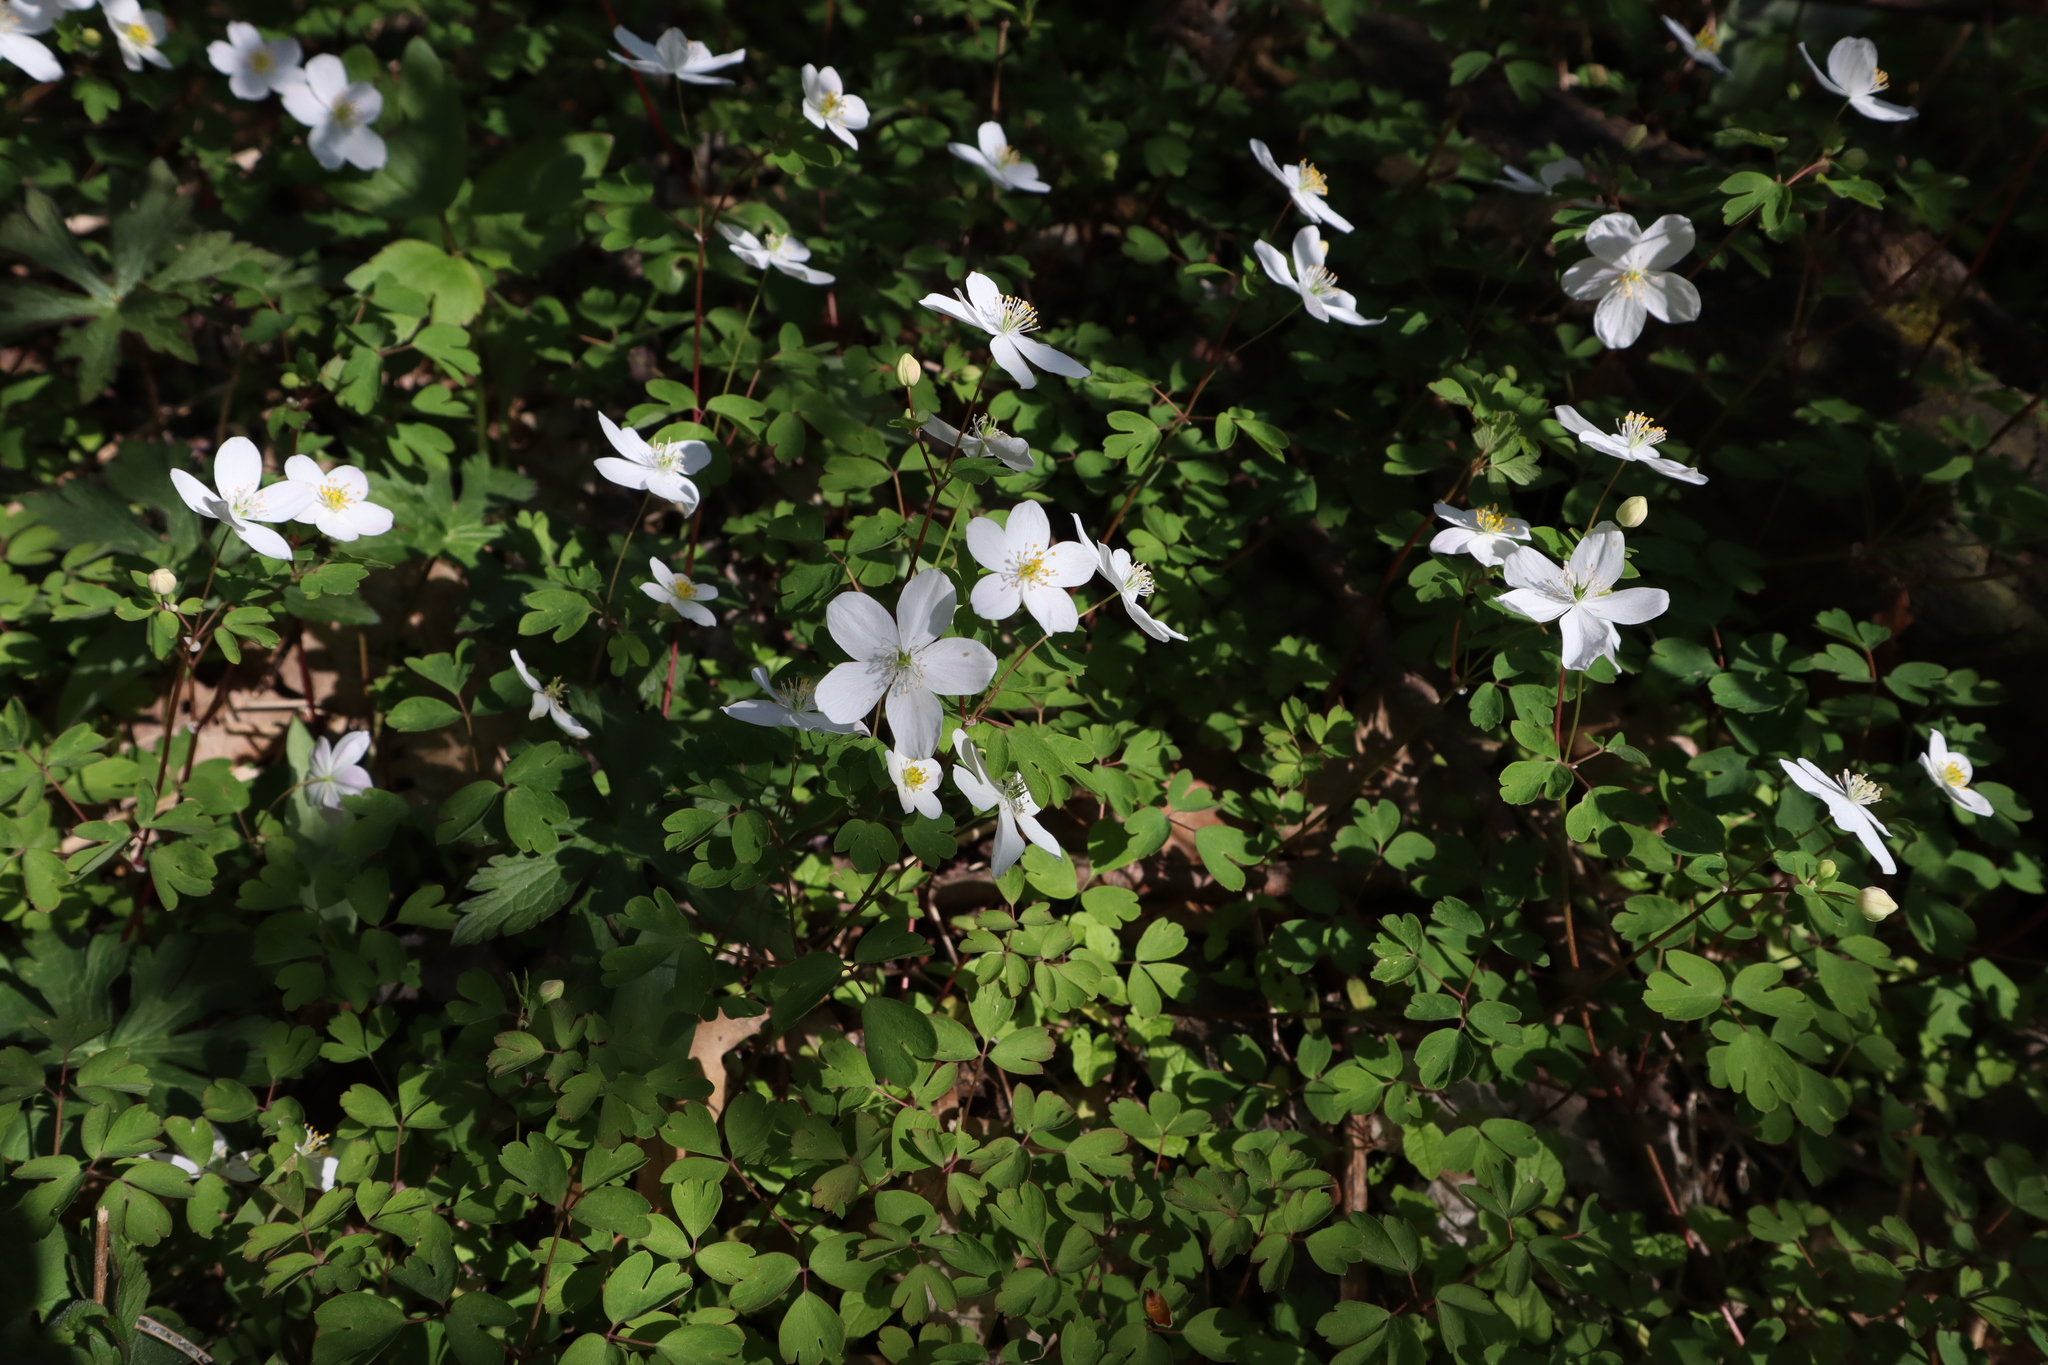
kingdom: Plantae
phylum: Tracheophyta
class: Magnoliopsida
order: Ranunculales
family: Ranunculaceae
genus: Enemion
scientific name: Enemion biternatum
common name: Eastern false rue-anemone
